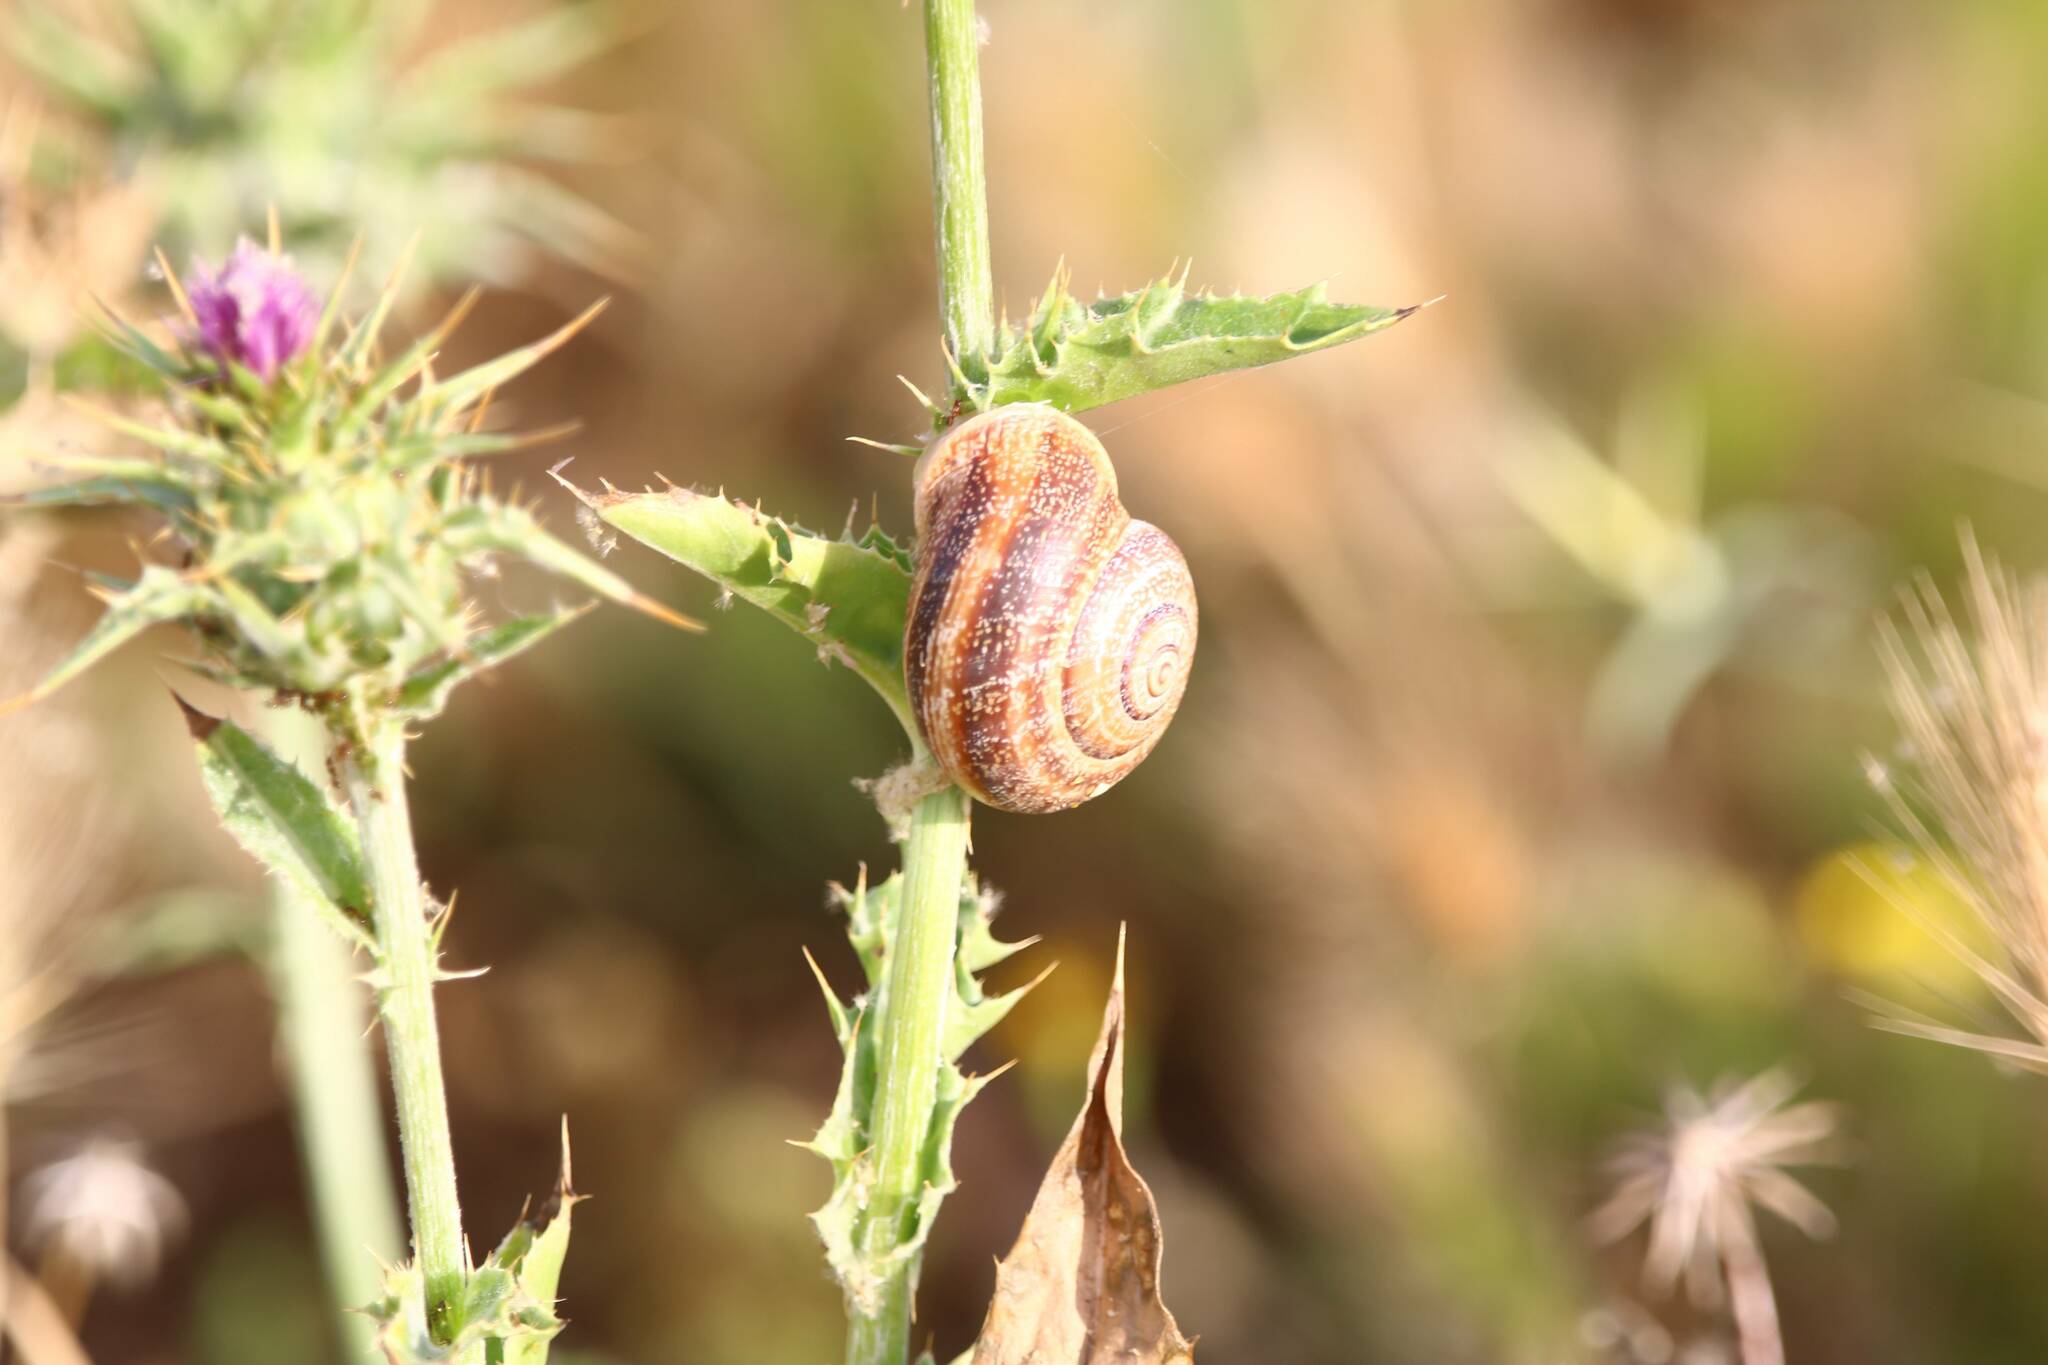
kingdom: Animalia
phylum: Mollusca
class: Gastropoda
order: Stylommatophora
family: Helicidae
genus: Otala
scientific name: Otala punctata
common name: Milk snail
